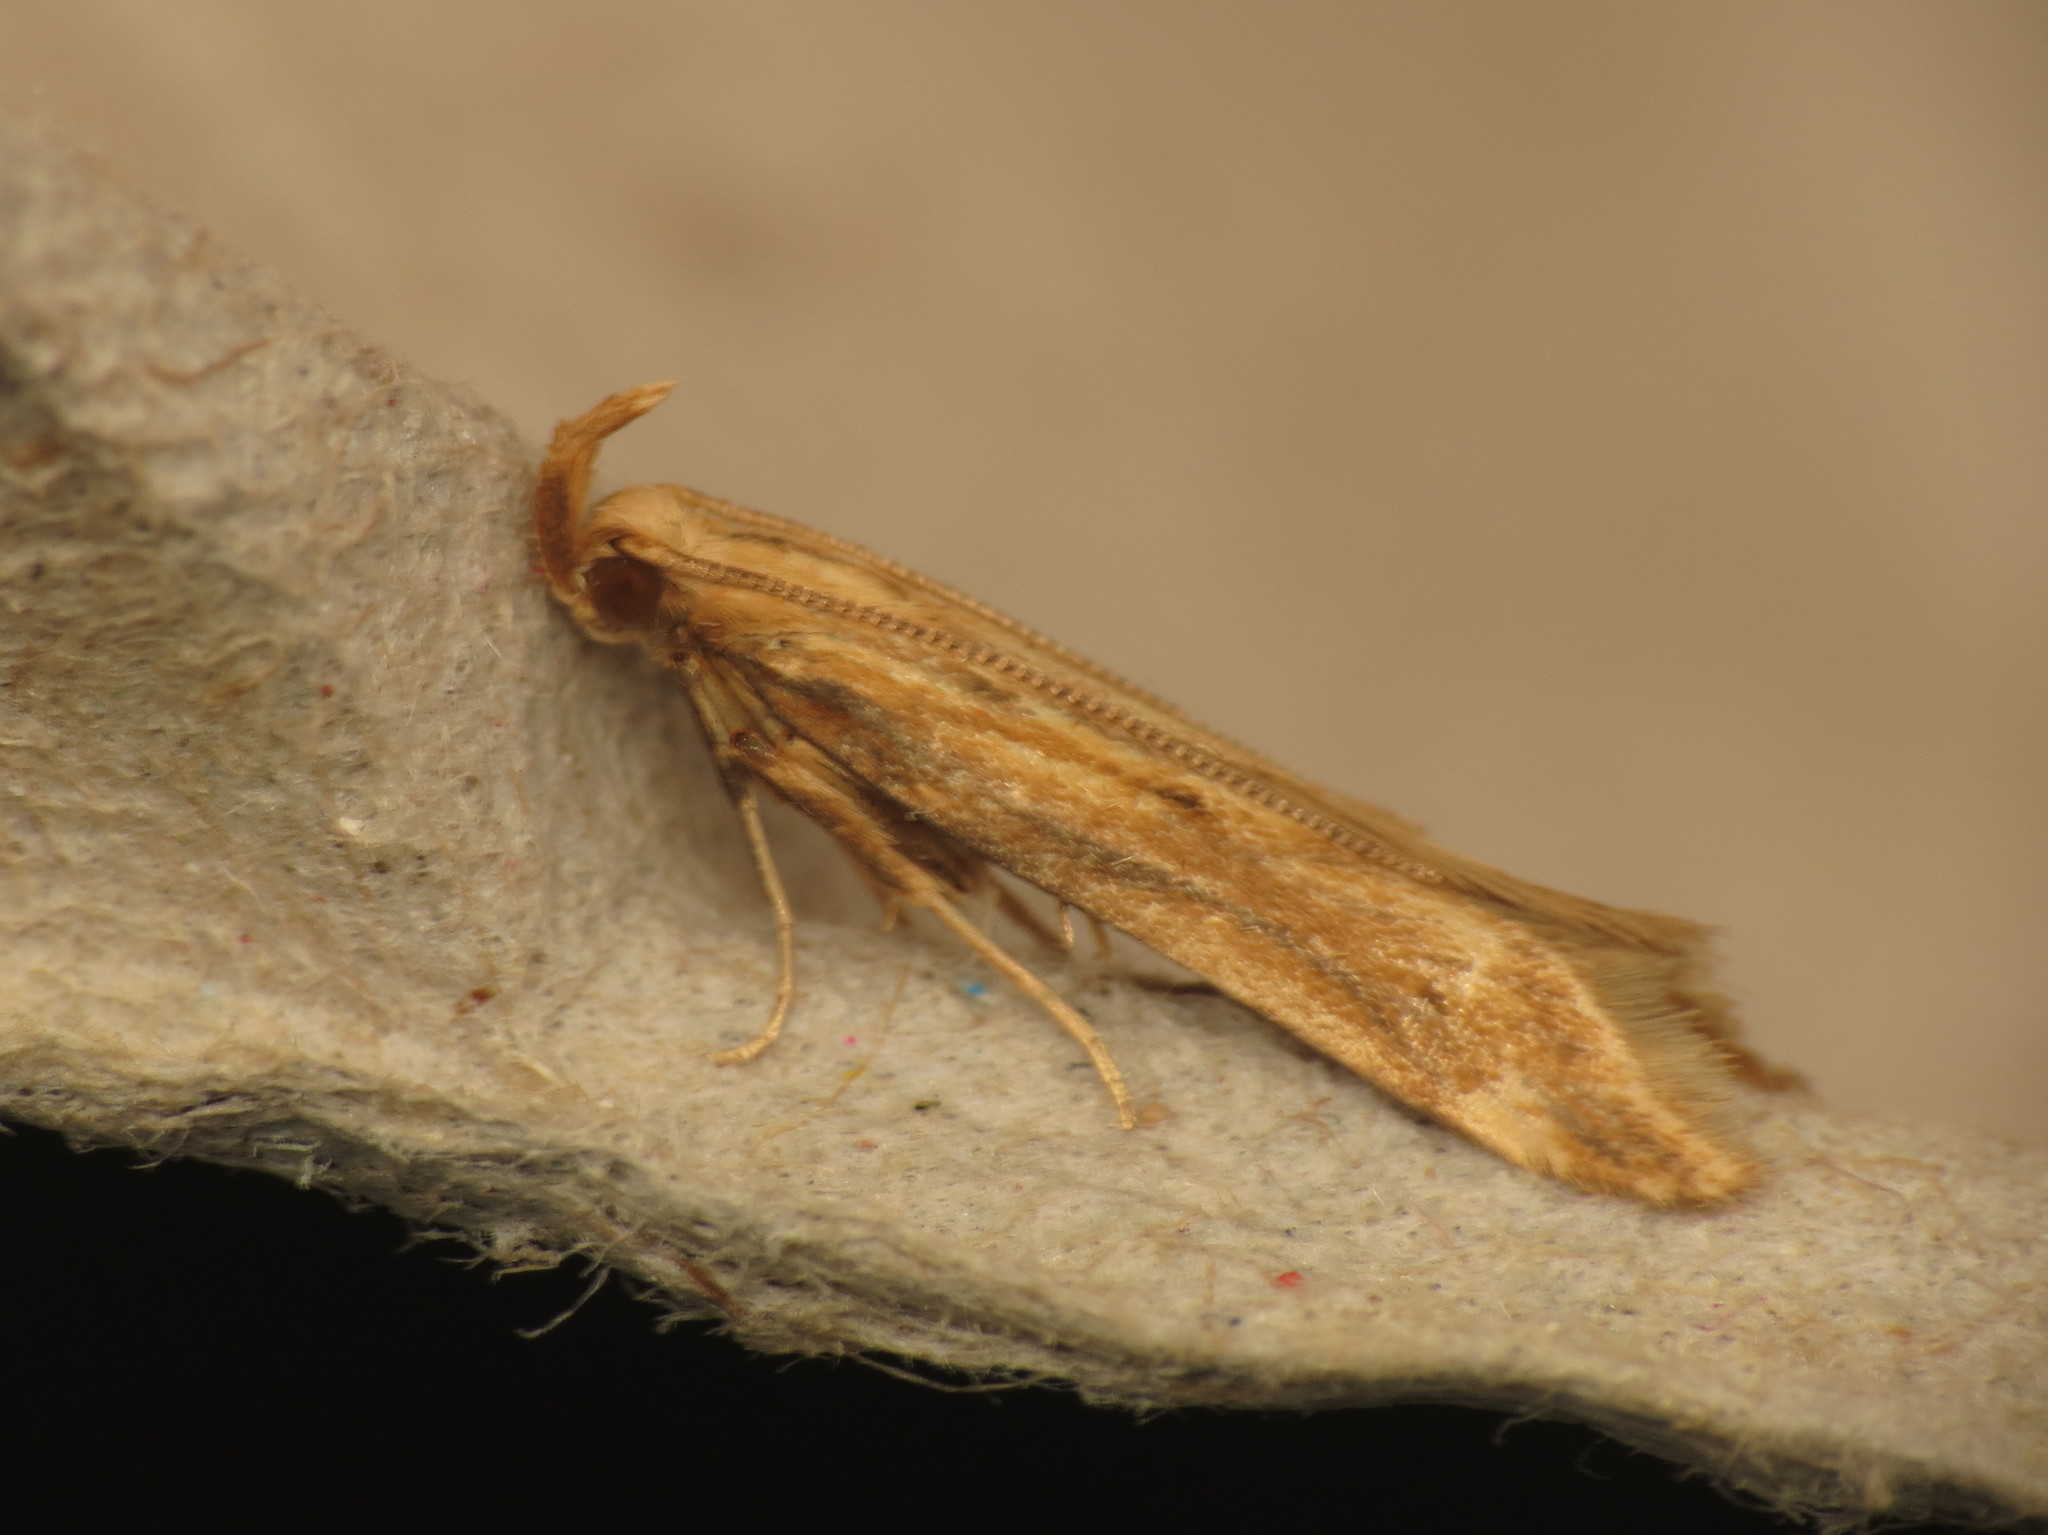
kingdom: Animalia
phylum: Arthropoda
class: Insecta
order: Lepidoptera
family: Gelechiidae
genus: Metzneria
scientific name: Metzneria lappella
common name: Burdock neb
